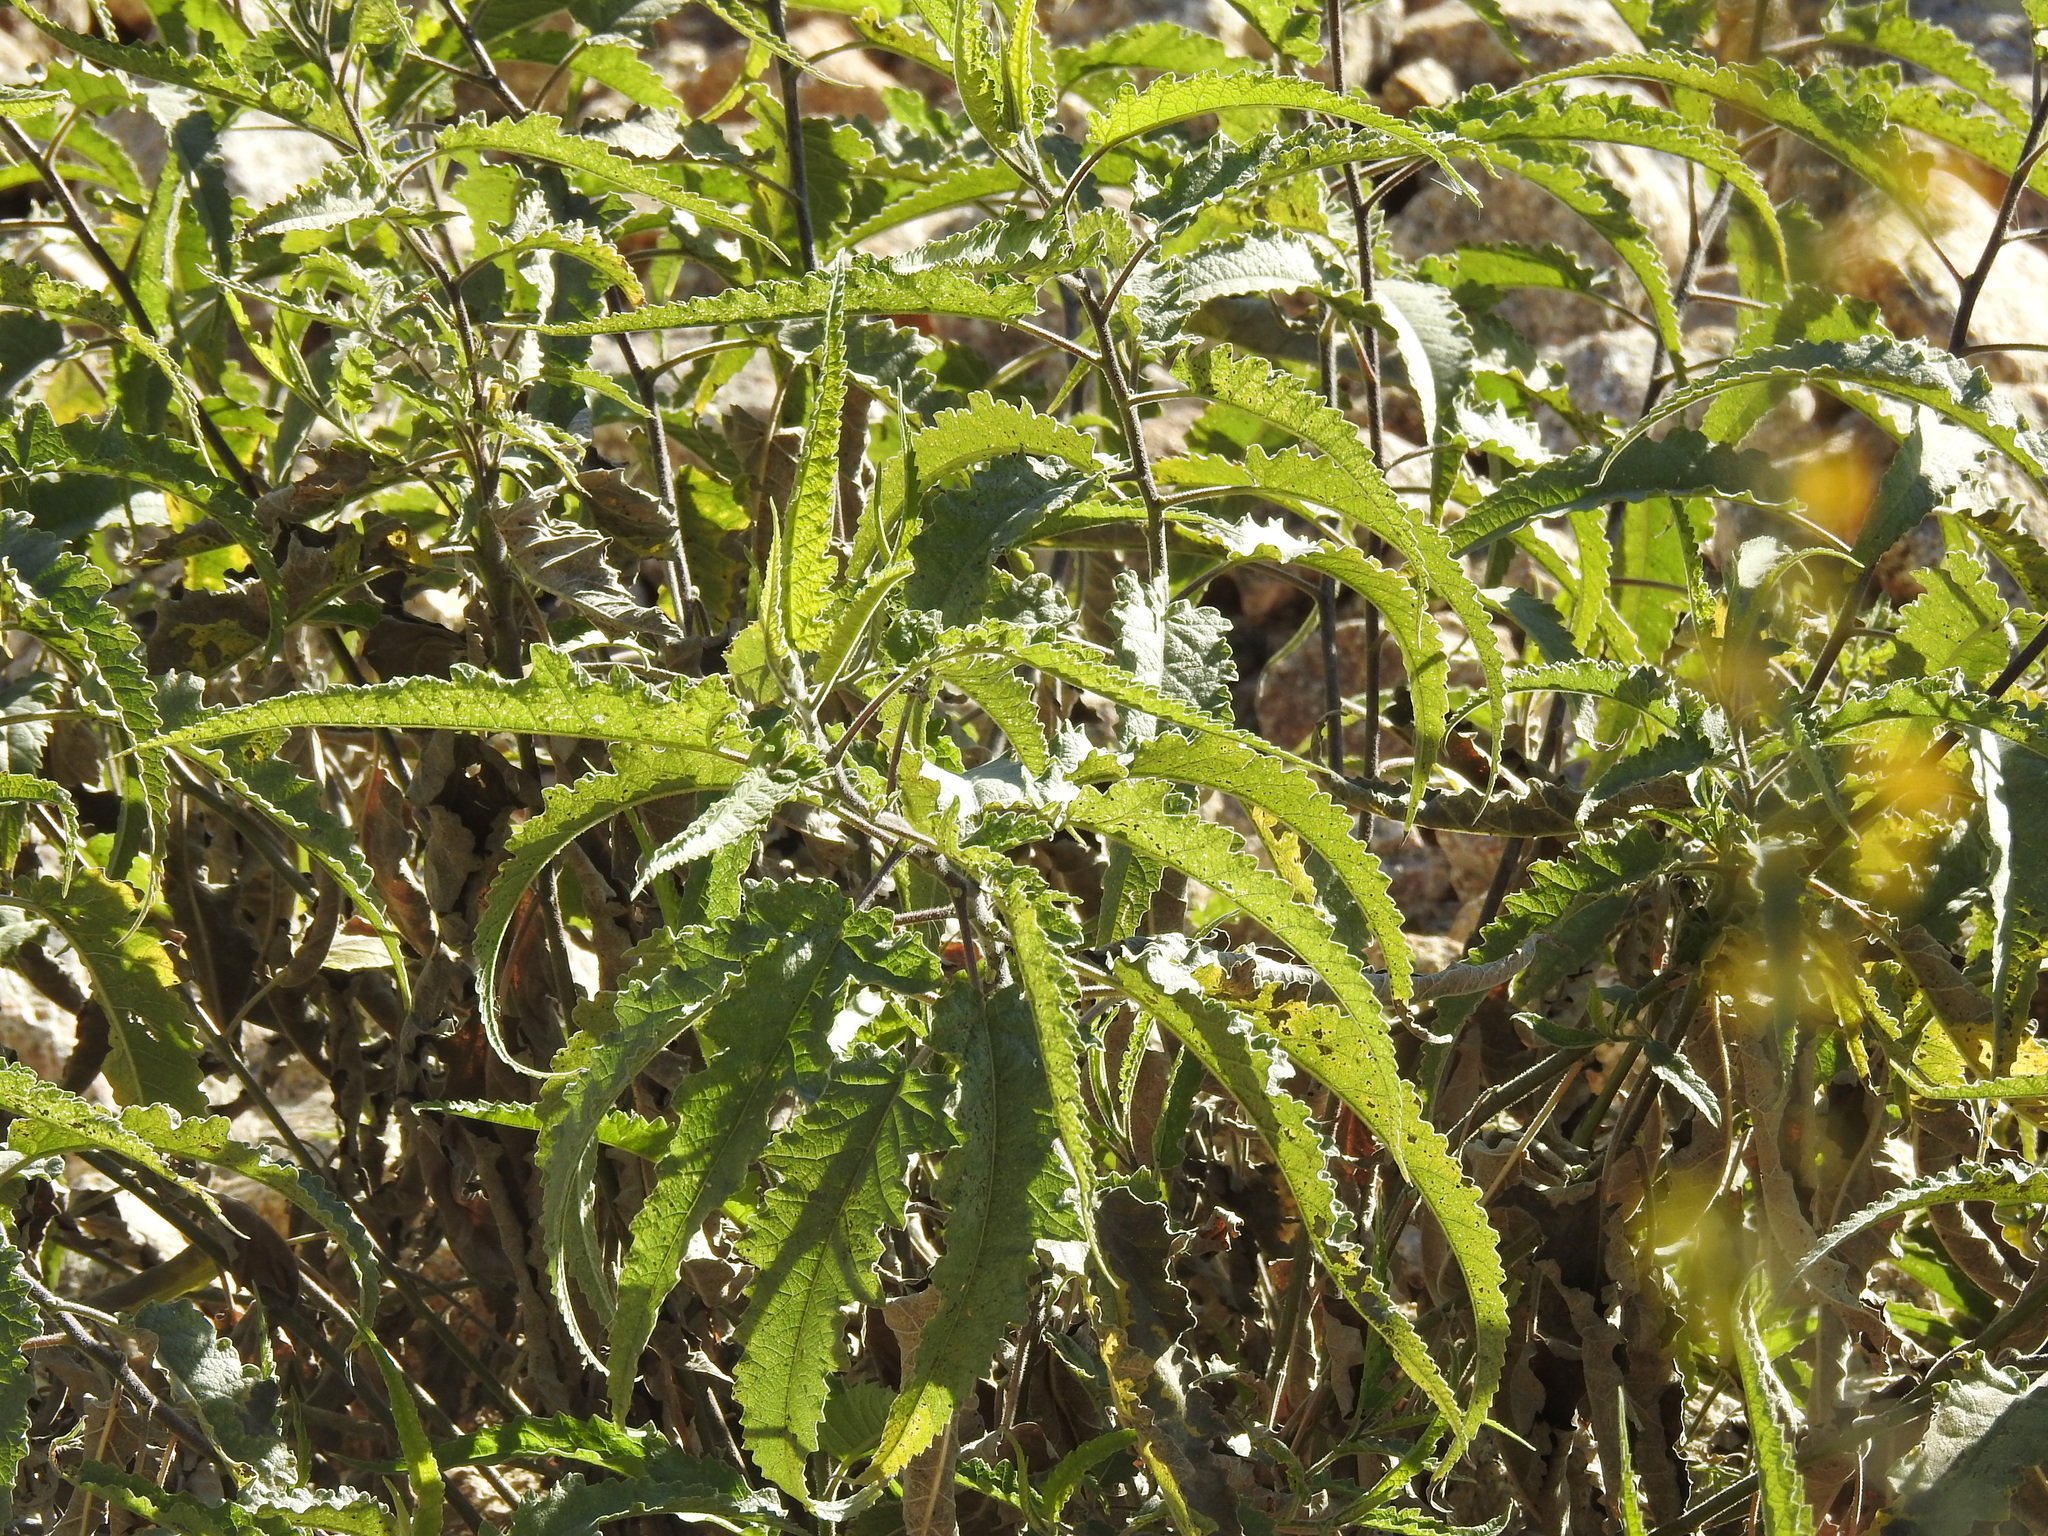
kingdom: Plantae
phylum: Tracheophyta
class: Magnoliopsida
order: Asterales
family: Asteraceae
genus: Ambrosia
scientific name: Ambrosia ambrosioides
